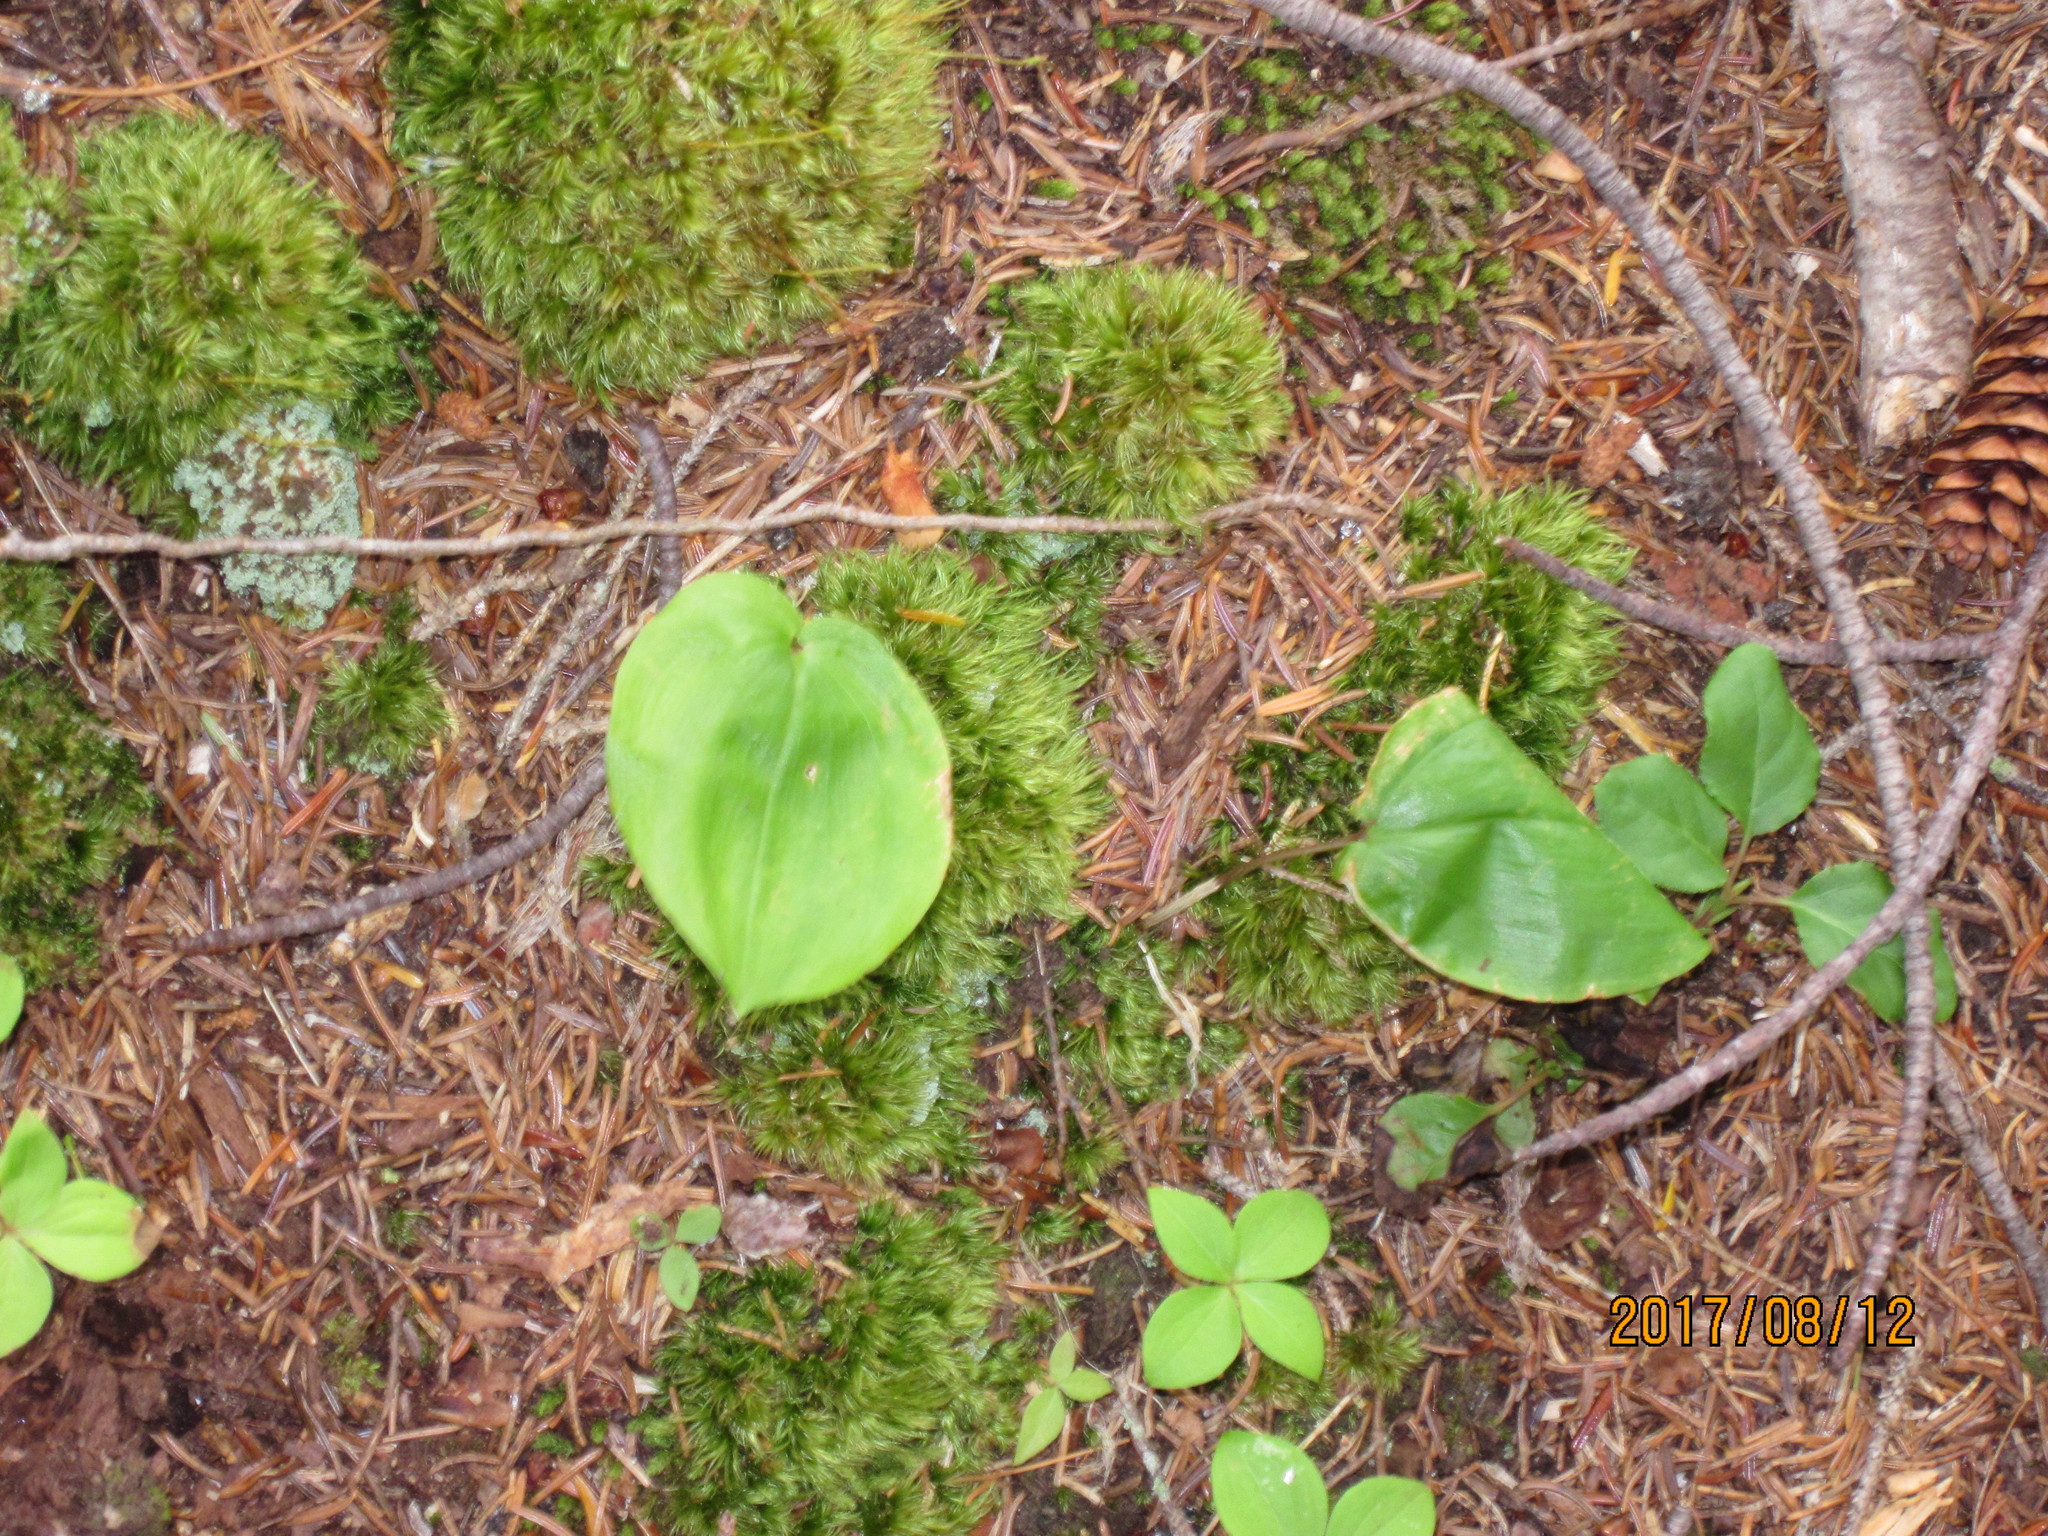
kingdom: Plantae
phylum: Tracheophyta
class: Liliopsida
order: Asparagales
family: Asparagaceae
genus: Maianthemum
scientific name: Maianthemum canadense
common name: False lily-of-the-valley
